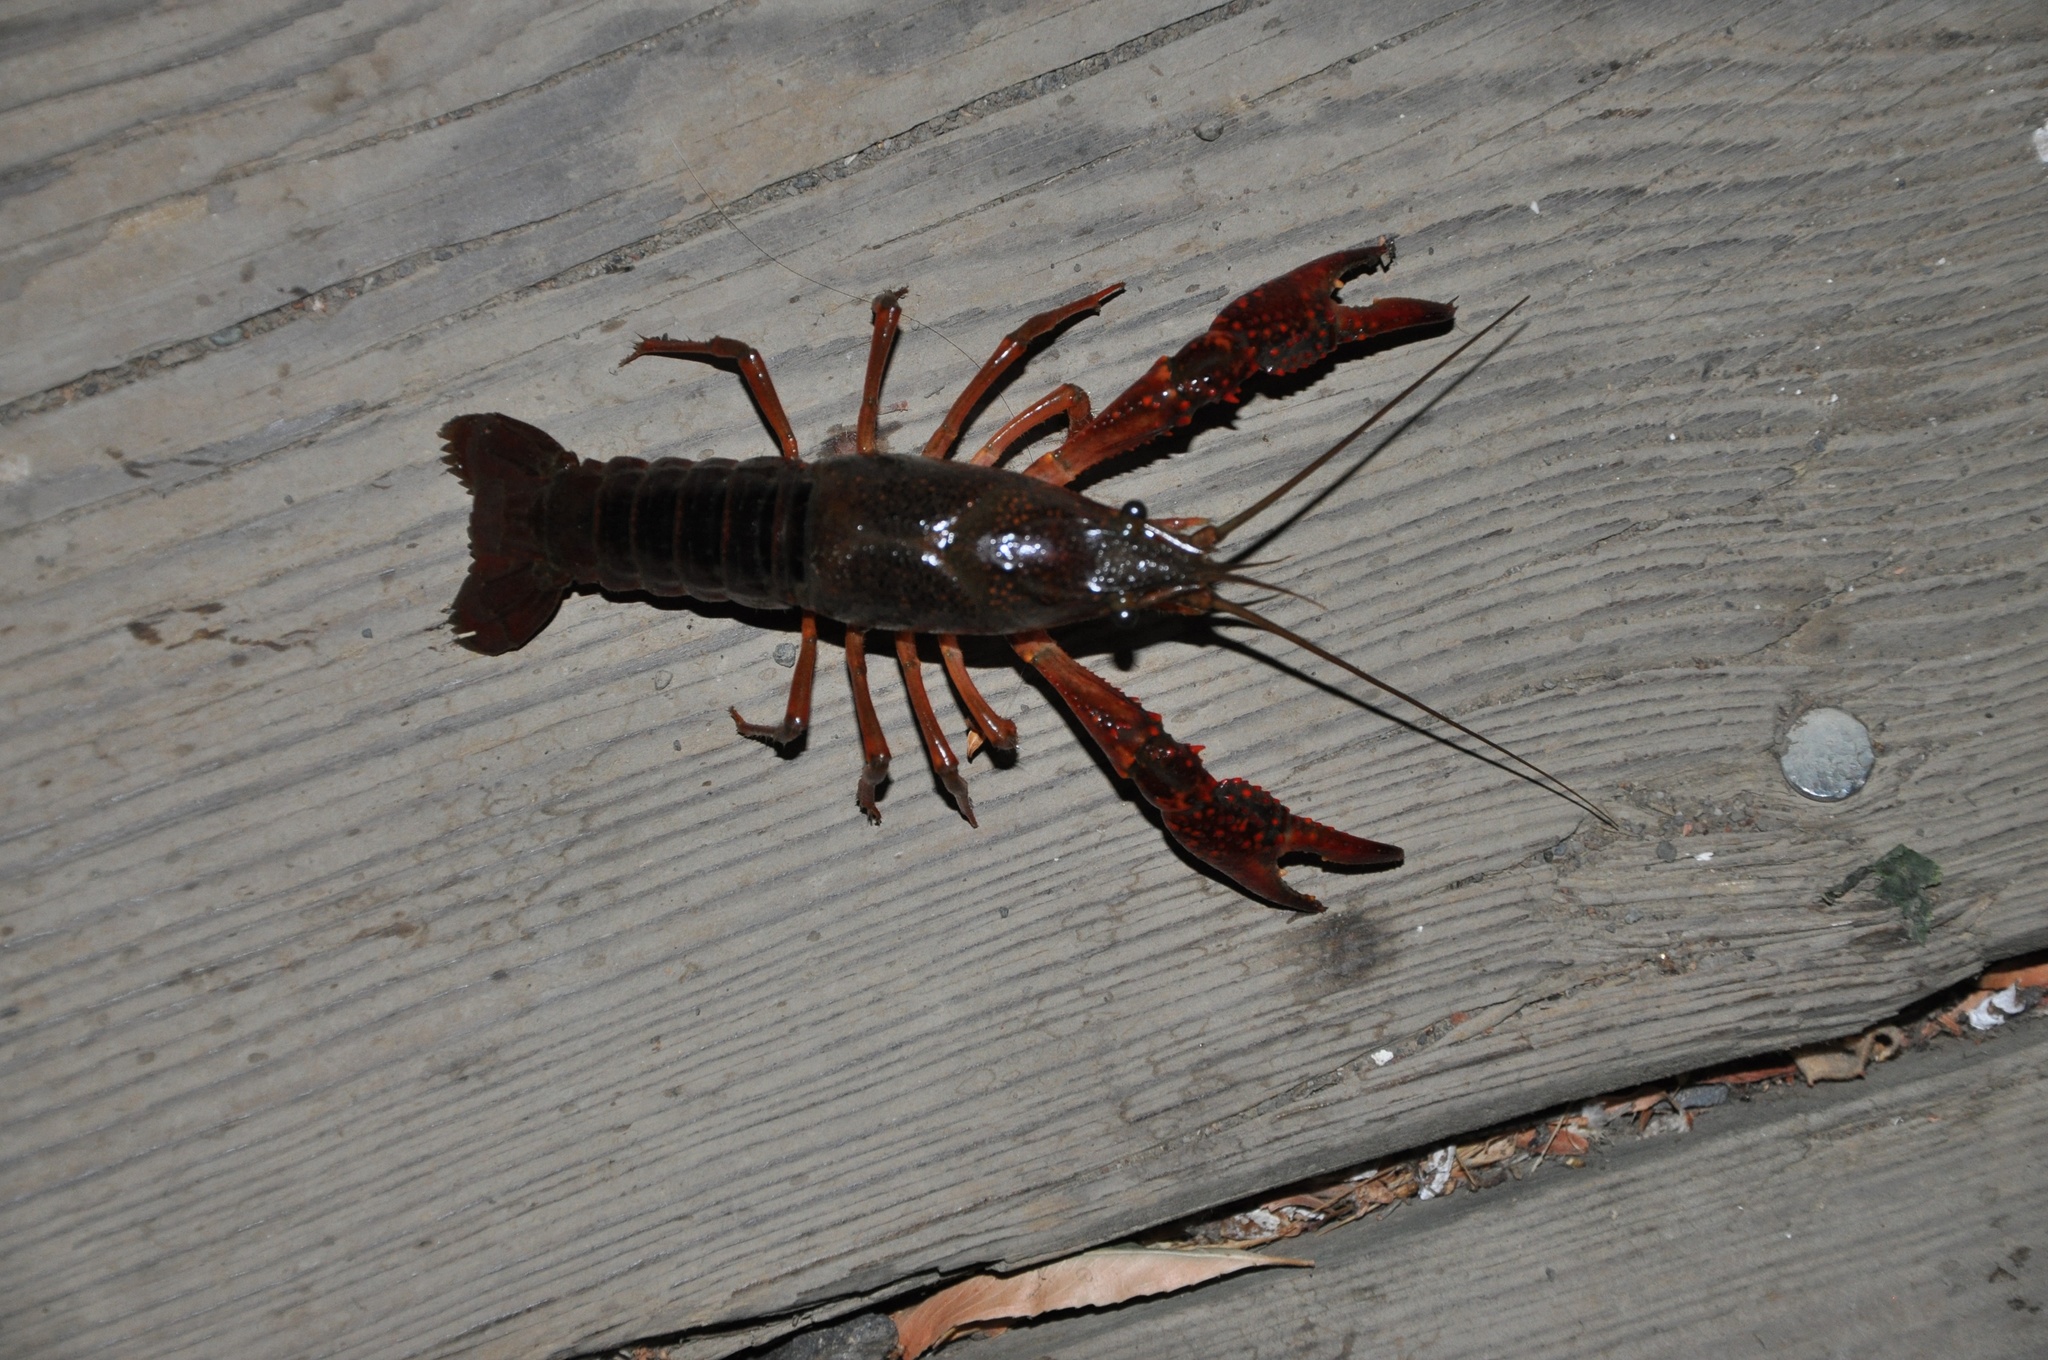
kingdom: Animalia
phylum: Arthropoda
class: Malacostraca
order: Decapoda
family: Cambaridae
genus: Procambarus
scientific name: Procambarus clarkii
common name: Red swamp crayfish
